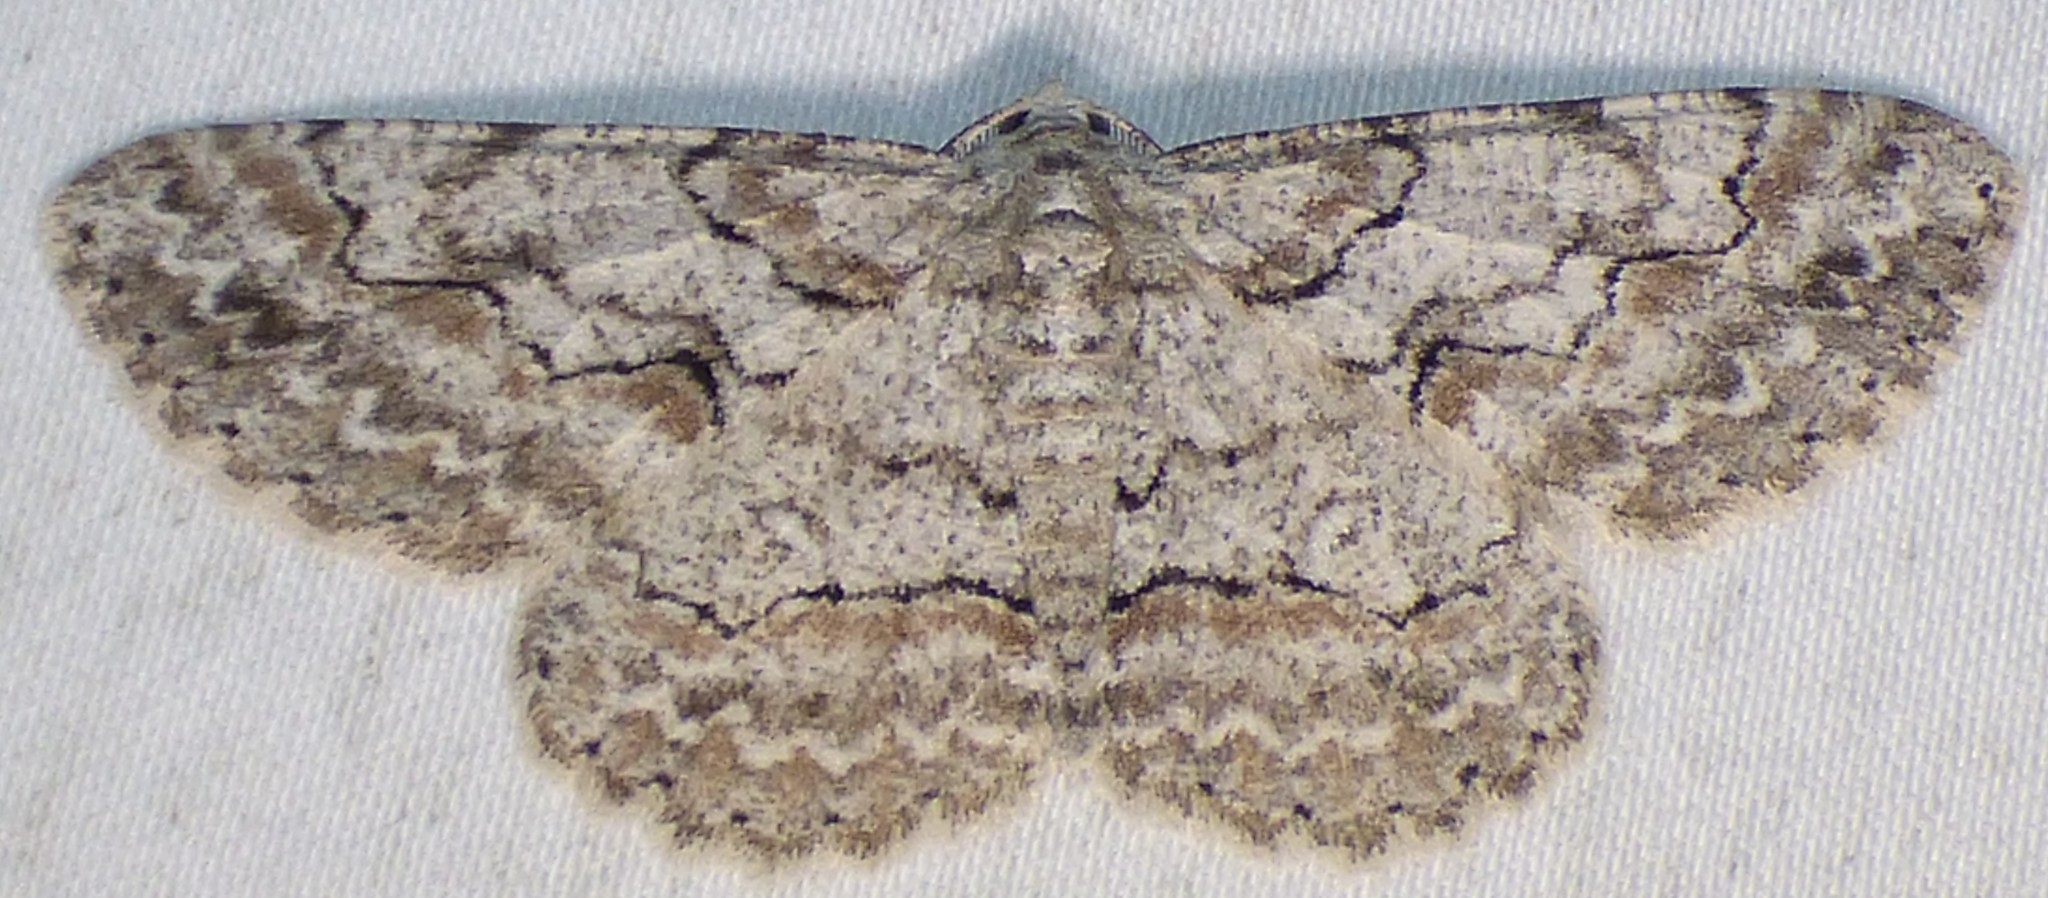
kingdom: Animalia
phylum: Arthropoda
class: Insecta
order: Lepidoptera
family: Geometridae
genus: Iridopsis
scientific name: Iridopsis defectaria
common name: Brown-shaded gray
